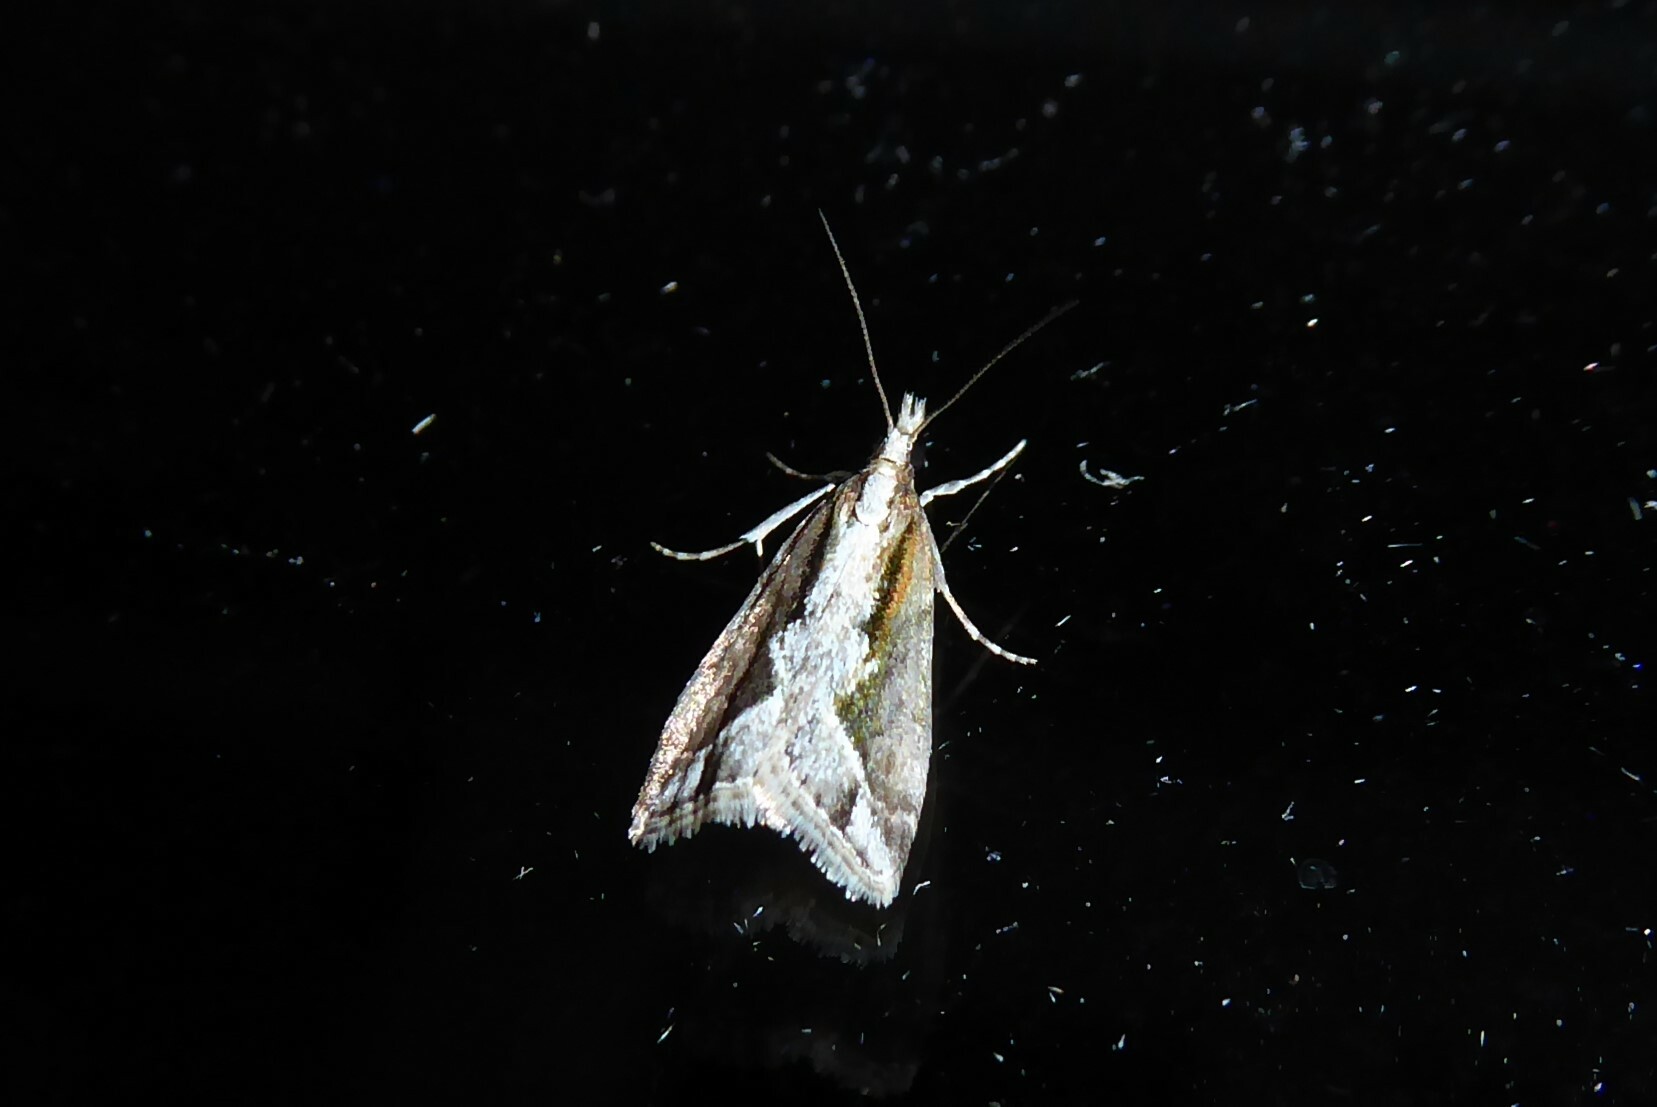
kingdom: Animalia
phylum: Arthropoda
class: Insecta
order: Lepidoptera
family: Crambidae
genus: Eudonia
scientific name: Eudonia steropaea
